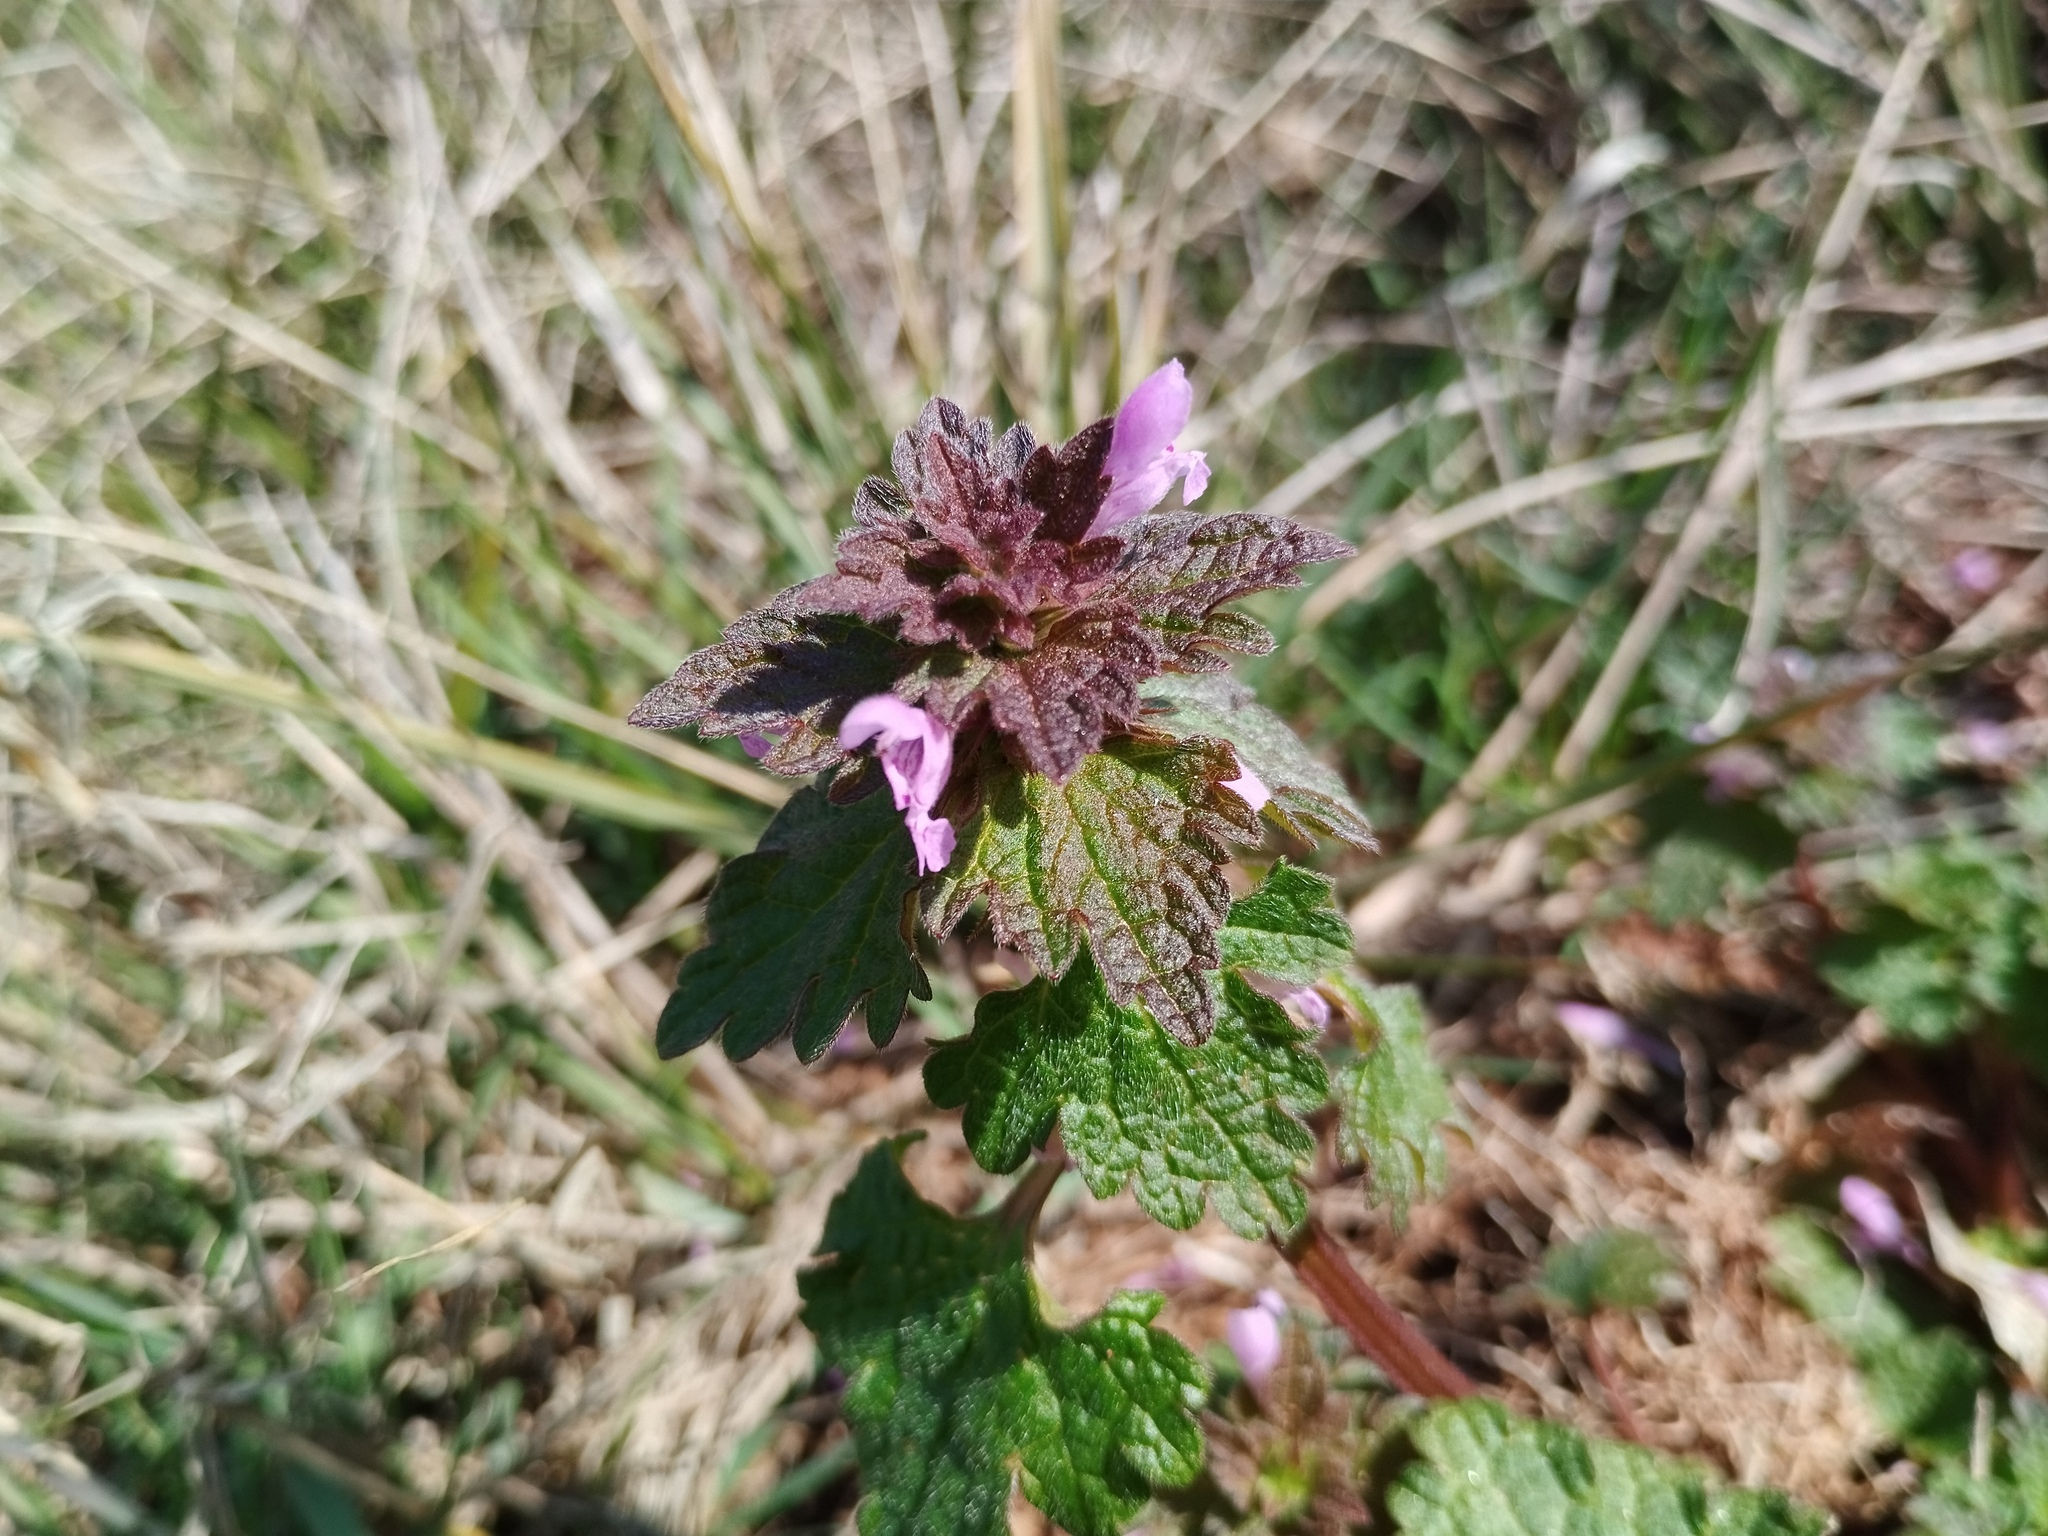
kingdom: Plantae
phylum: Tracheophyta
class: Magnoliopsida
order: Lamiales
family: Lamiaceae
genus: Lamium
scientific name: Lamium hybridum
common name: Cut-leaved dead-nettle
